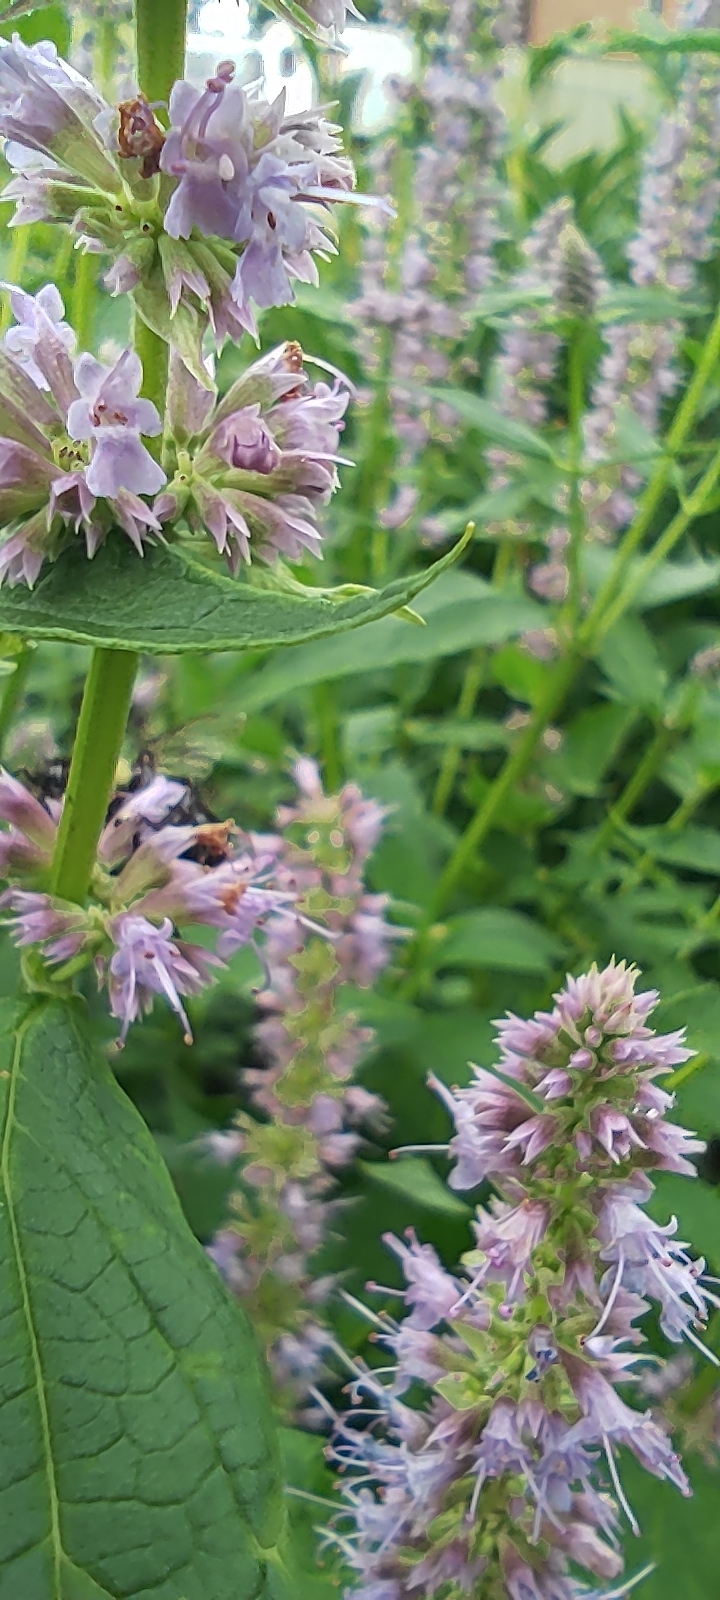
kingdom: Animalia
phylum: Arthropoda
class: Insecta
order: Hymenoptera
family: Apidae
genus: Bombus
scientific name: Bombus perplexus
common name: Confusing bumble bee
